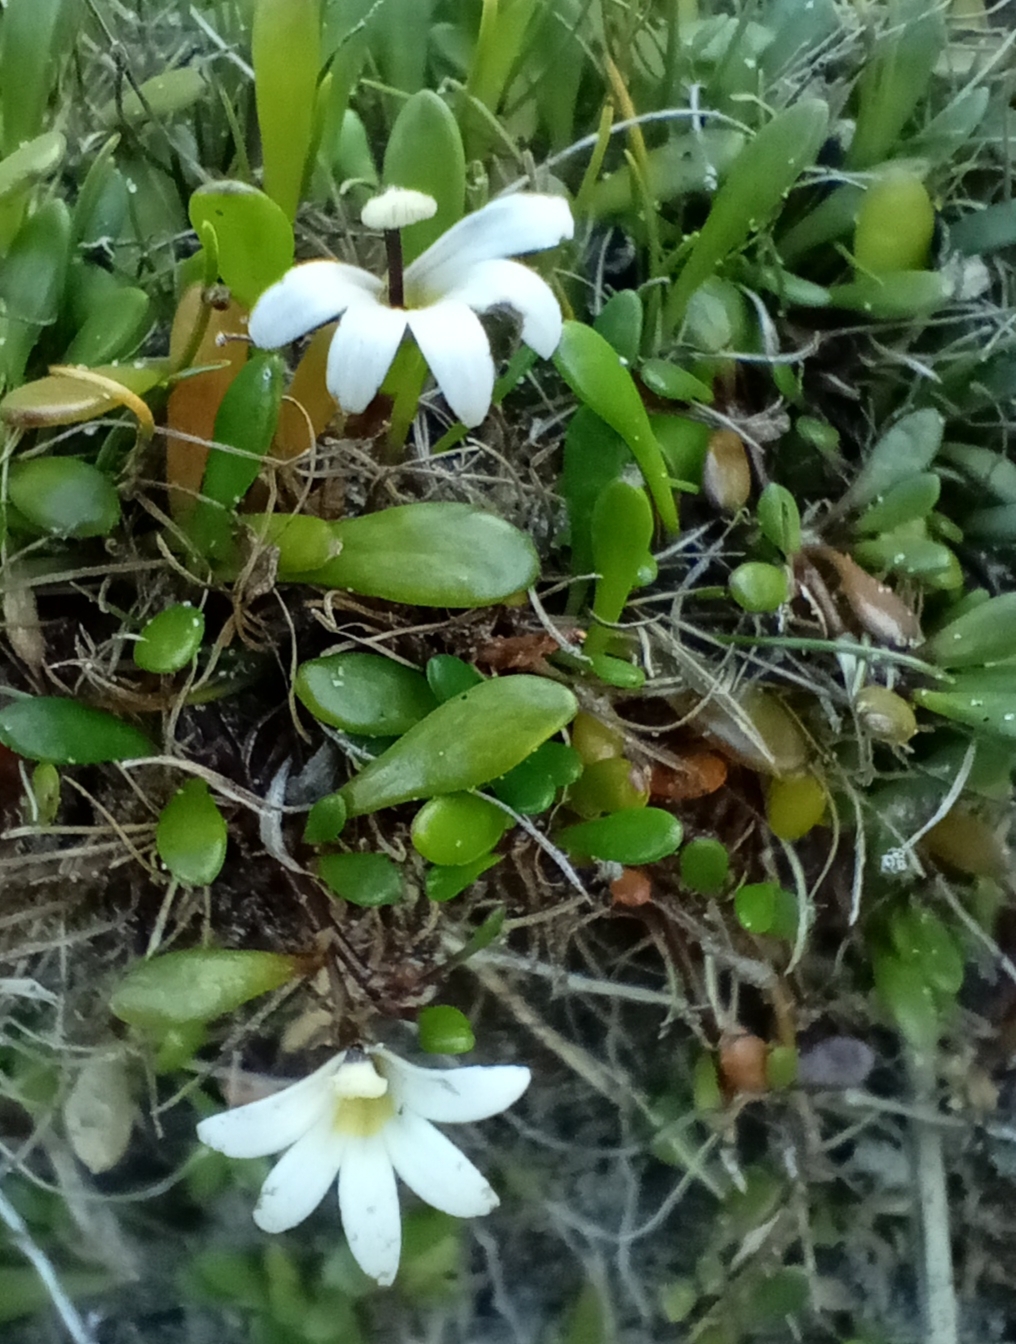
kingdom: Plantae
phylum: Tracheophyta
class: Magnoliopsida
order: Asterales
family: Goodeniaceae
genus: Goodenia
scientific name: Goodenia radicans
